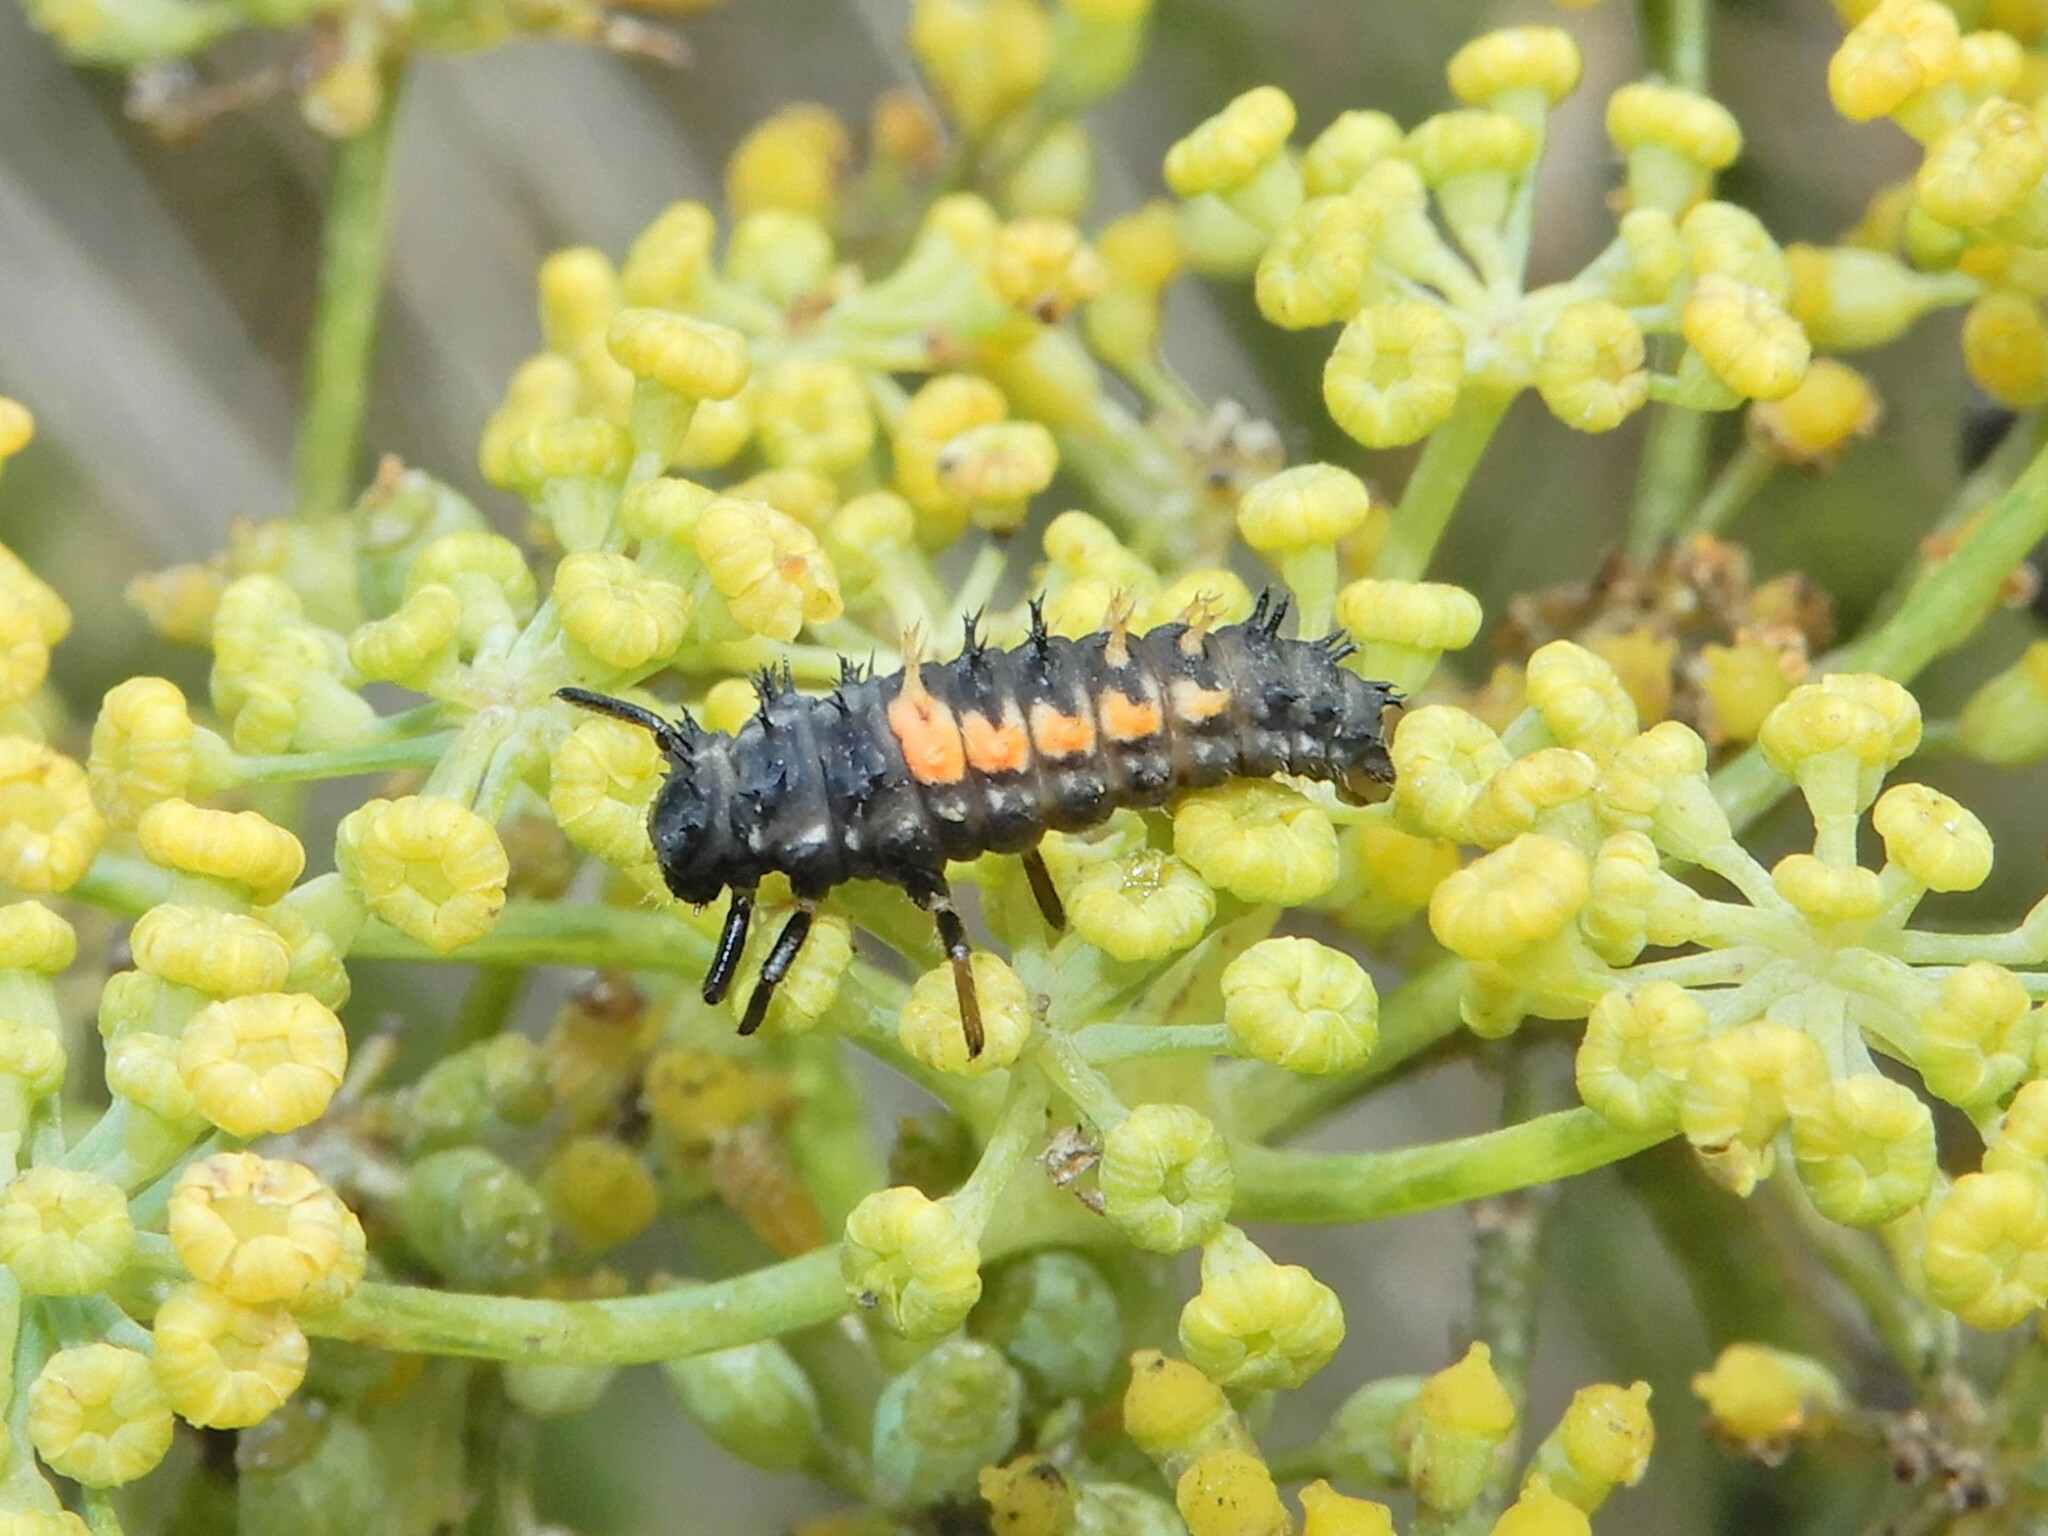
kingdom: Animalia
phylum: Arthropoda
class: Insecta
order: Coleoptera
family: Coccinellidae
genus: Harmonia
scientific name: Harmonia axyridis
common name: Harlequin ladybird
